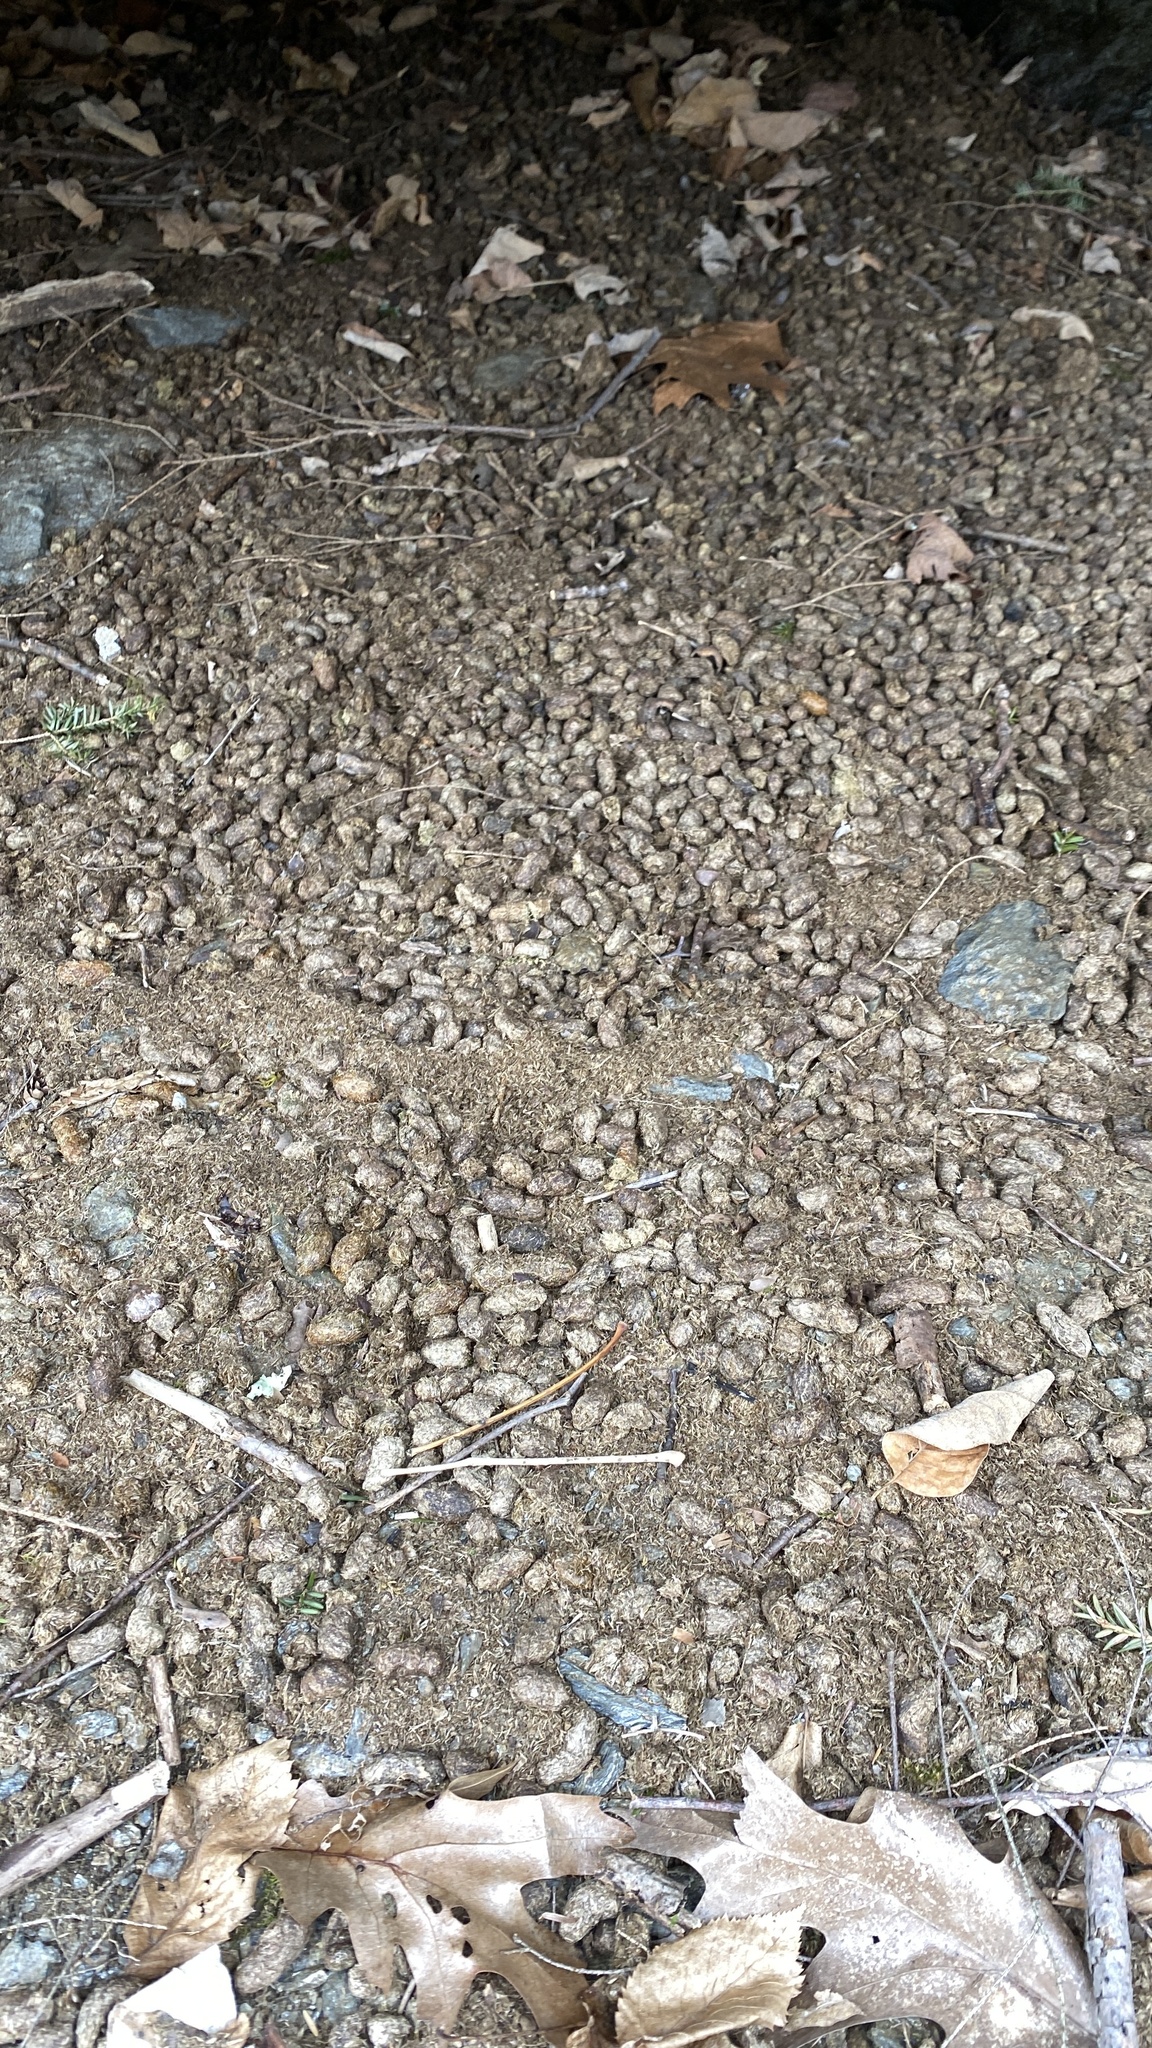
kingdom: Animalia
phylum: Chordata
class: Mammalia
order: Rodentia
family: Erethizontidae
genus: Erethizon
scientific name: Erethizon dorsatus
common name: North american porcupine
